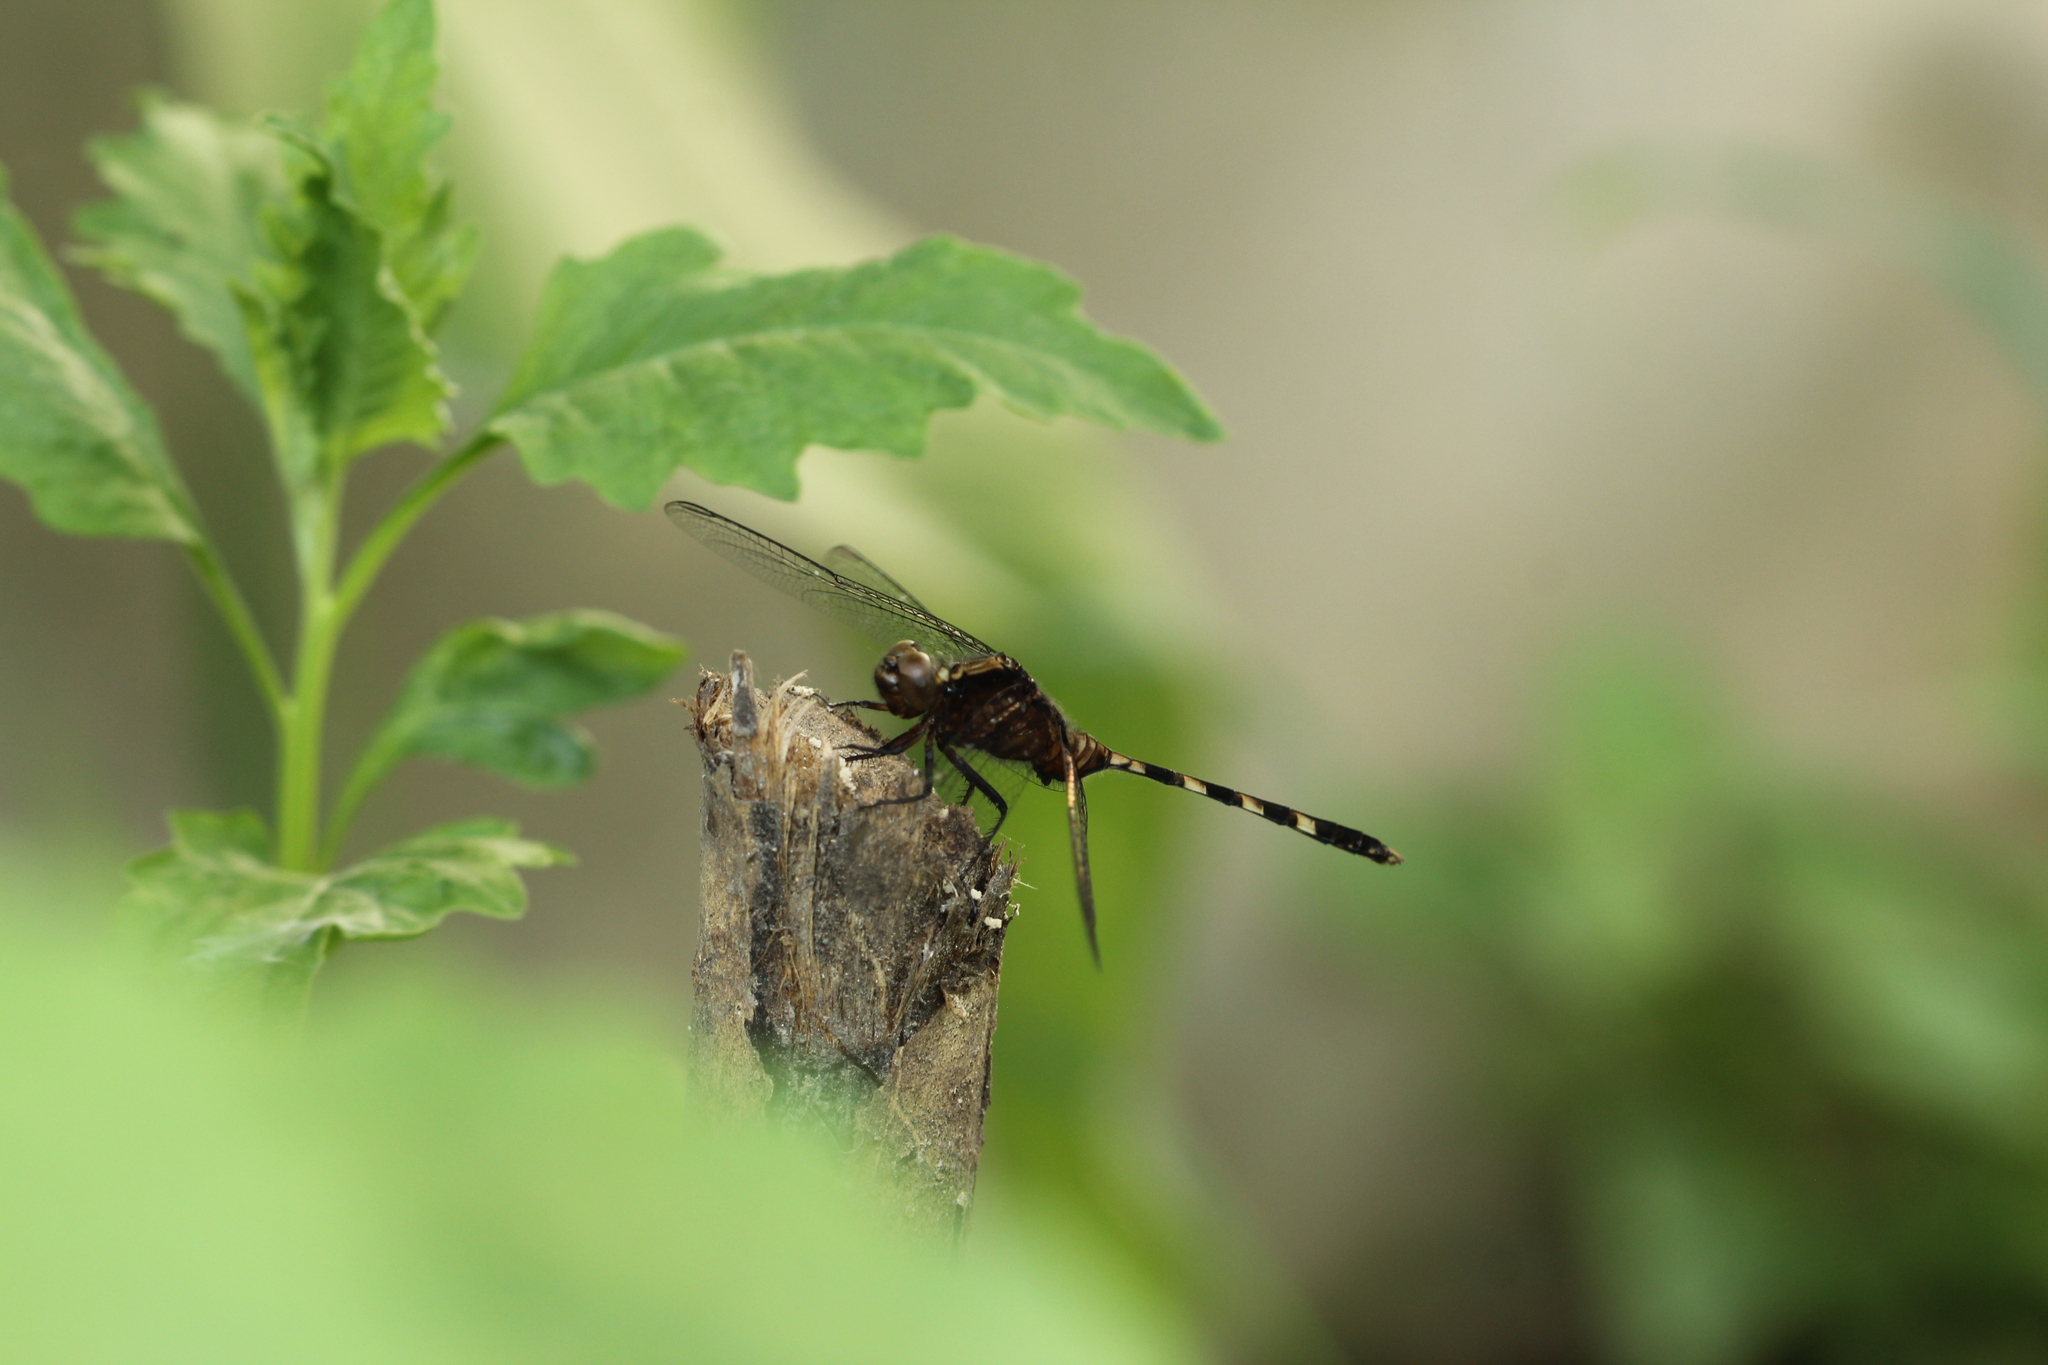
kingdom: Animalia
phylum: Arthropoda
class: Insecta
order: Odonata
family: Libellulidae
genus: Erythemis
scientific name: Erythemis plebeja
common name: Pin-tailed pondhawk
